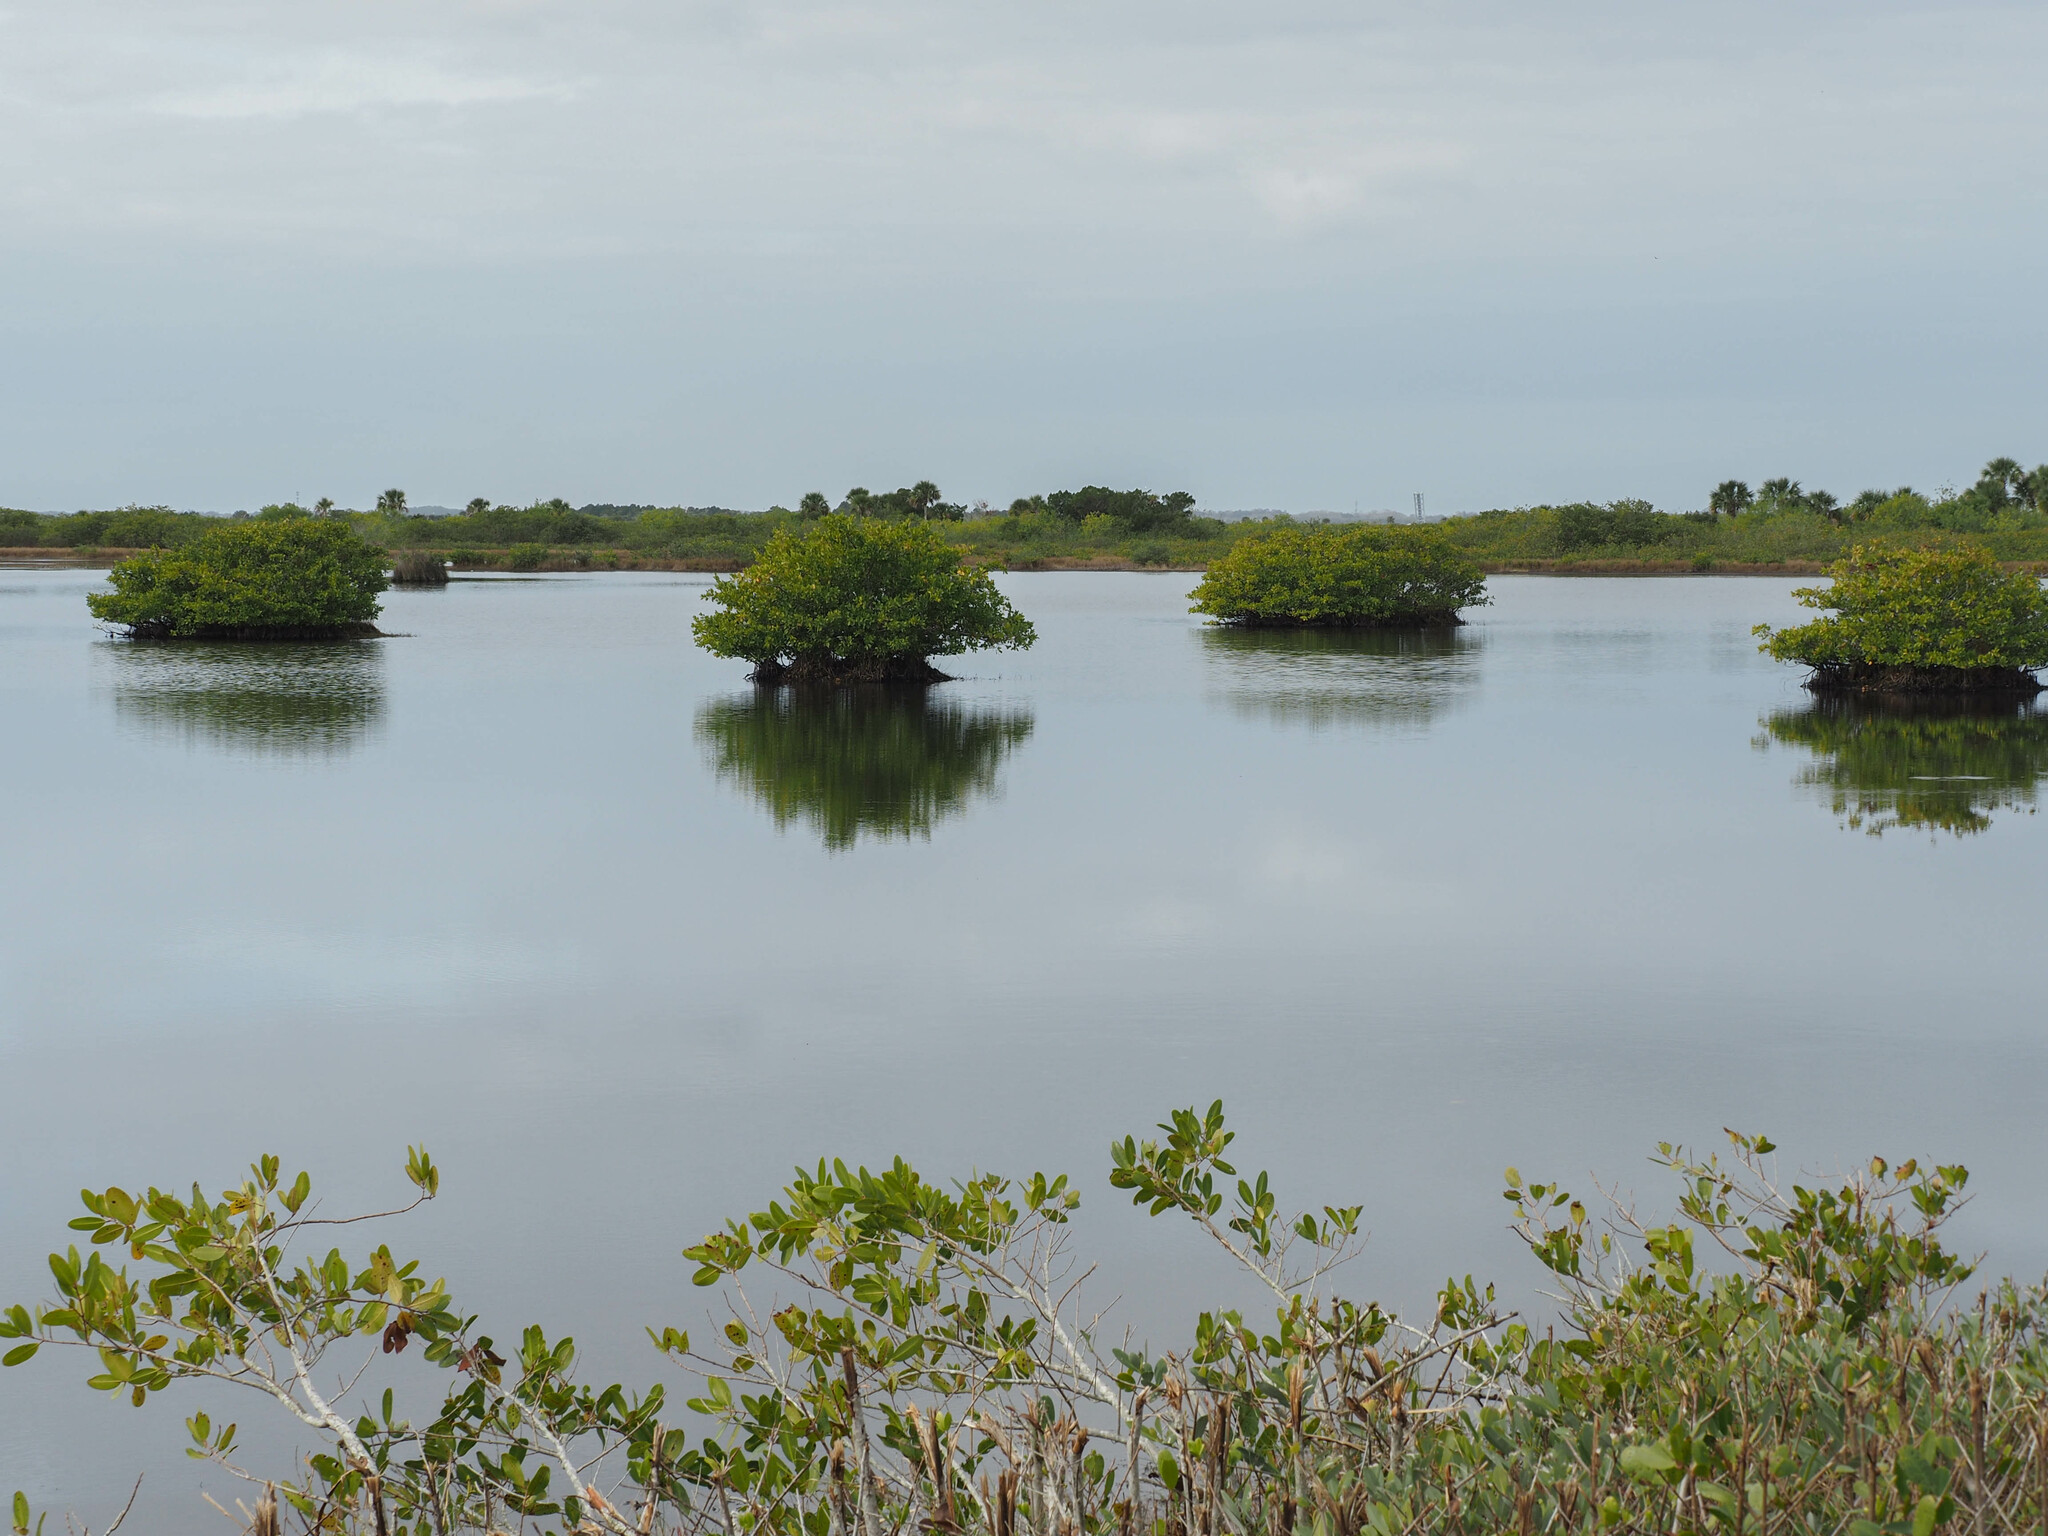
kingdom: Plantae
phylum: Tracheophyta
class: Magnoliopsida
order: Malpighiales
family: Rhizophoraceae
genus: Rhizophora
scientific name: Rhizophora mangle
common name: Red mangrove
